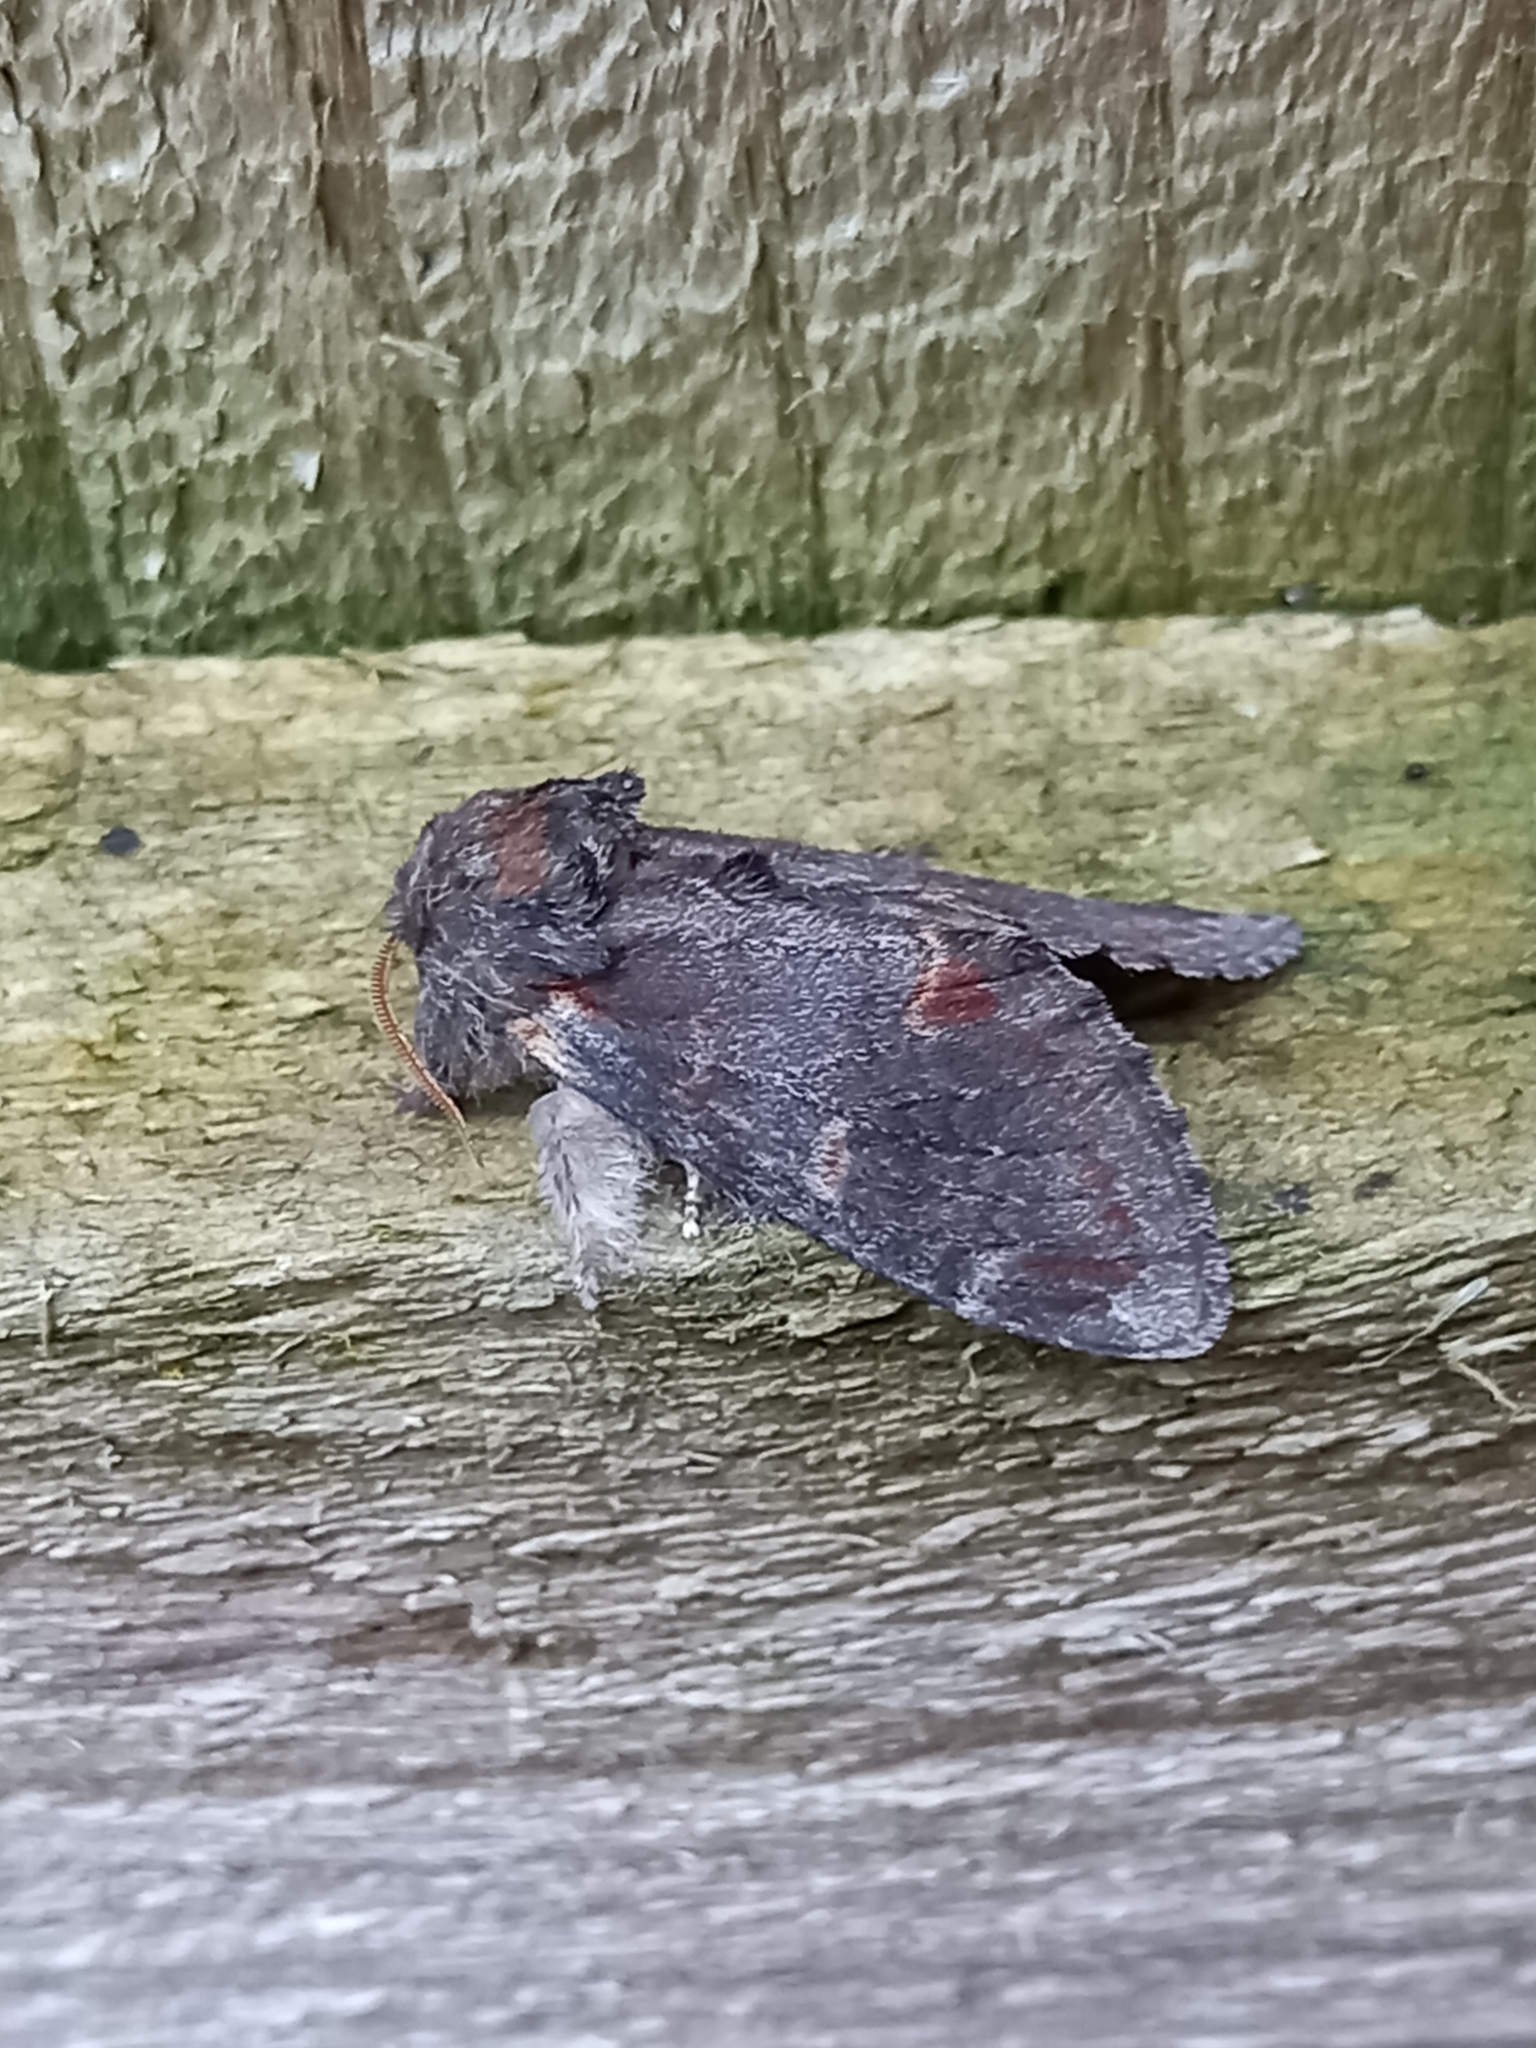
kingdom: Animalia
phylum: Arthropoda
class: Insecta
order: Lepidoptera
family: Notodontidae
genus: Notodonta
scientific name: Notodonta dromedarius
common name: Iron prominent
